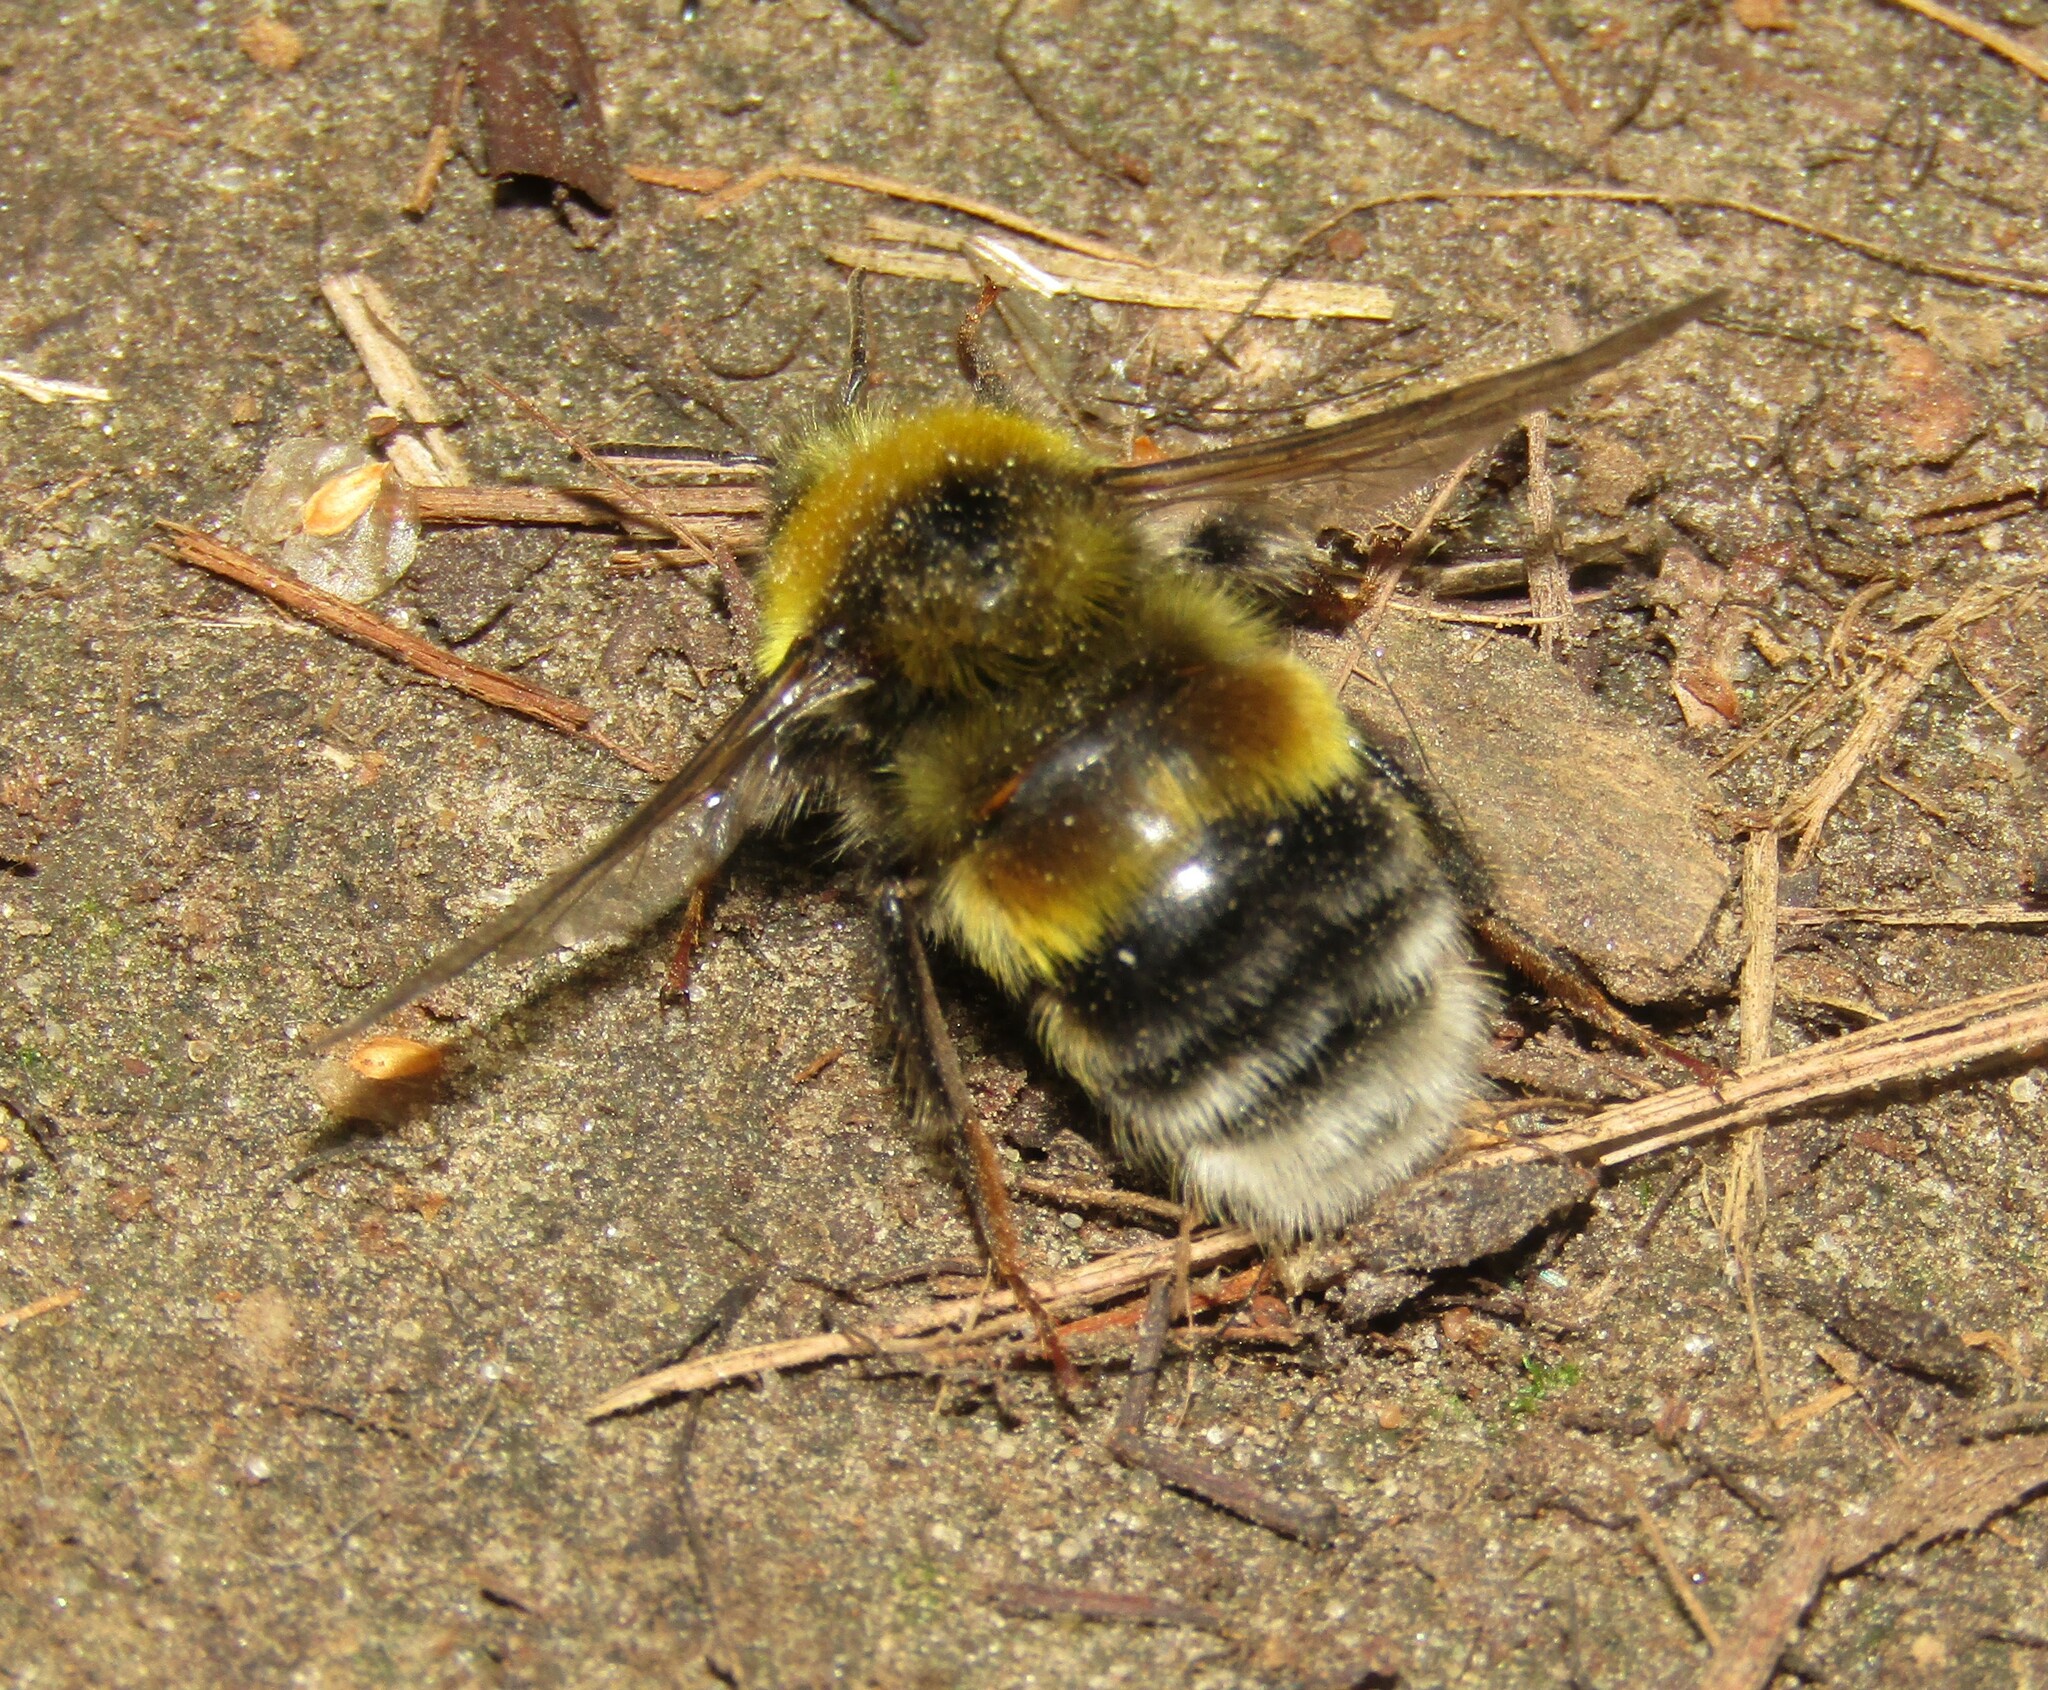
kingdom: Animalia
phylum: Arthropoda
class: Insecta
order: Hymenoptera
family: Apidae
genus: Bombus
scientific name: Bombus lucorum
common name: White-tailed bumblebee
